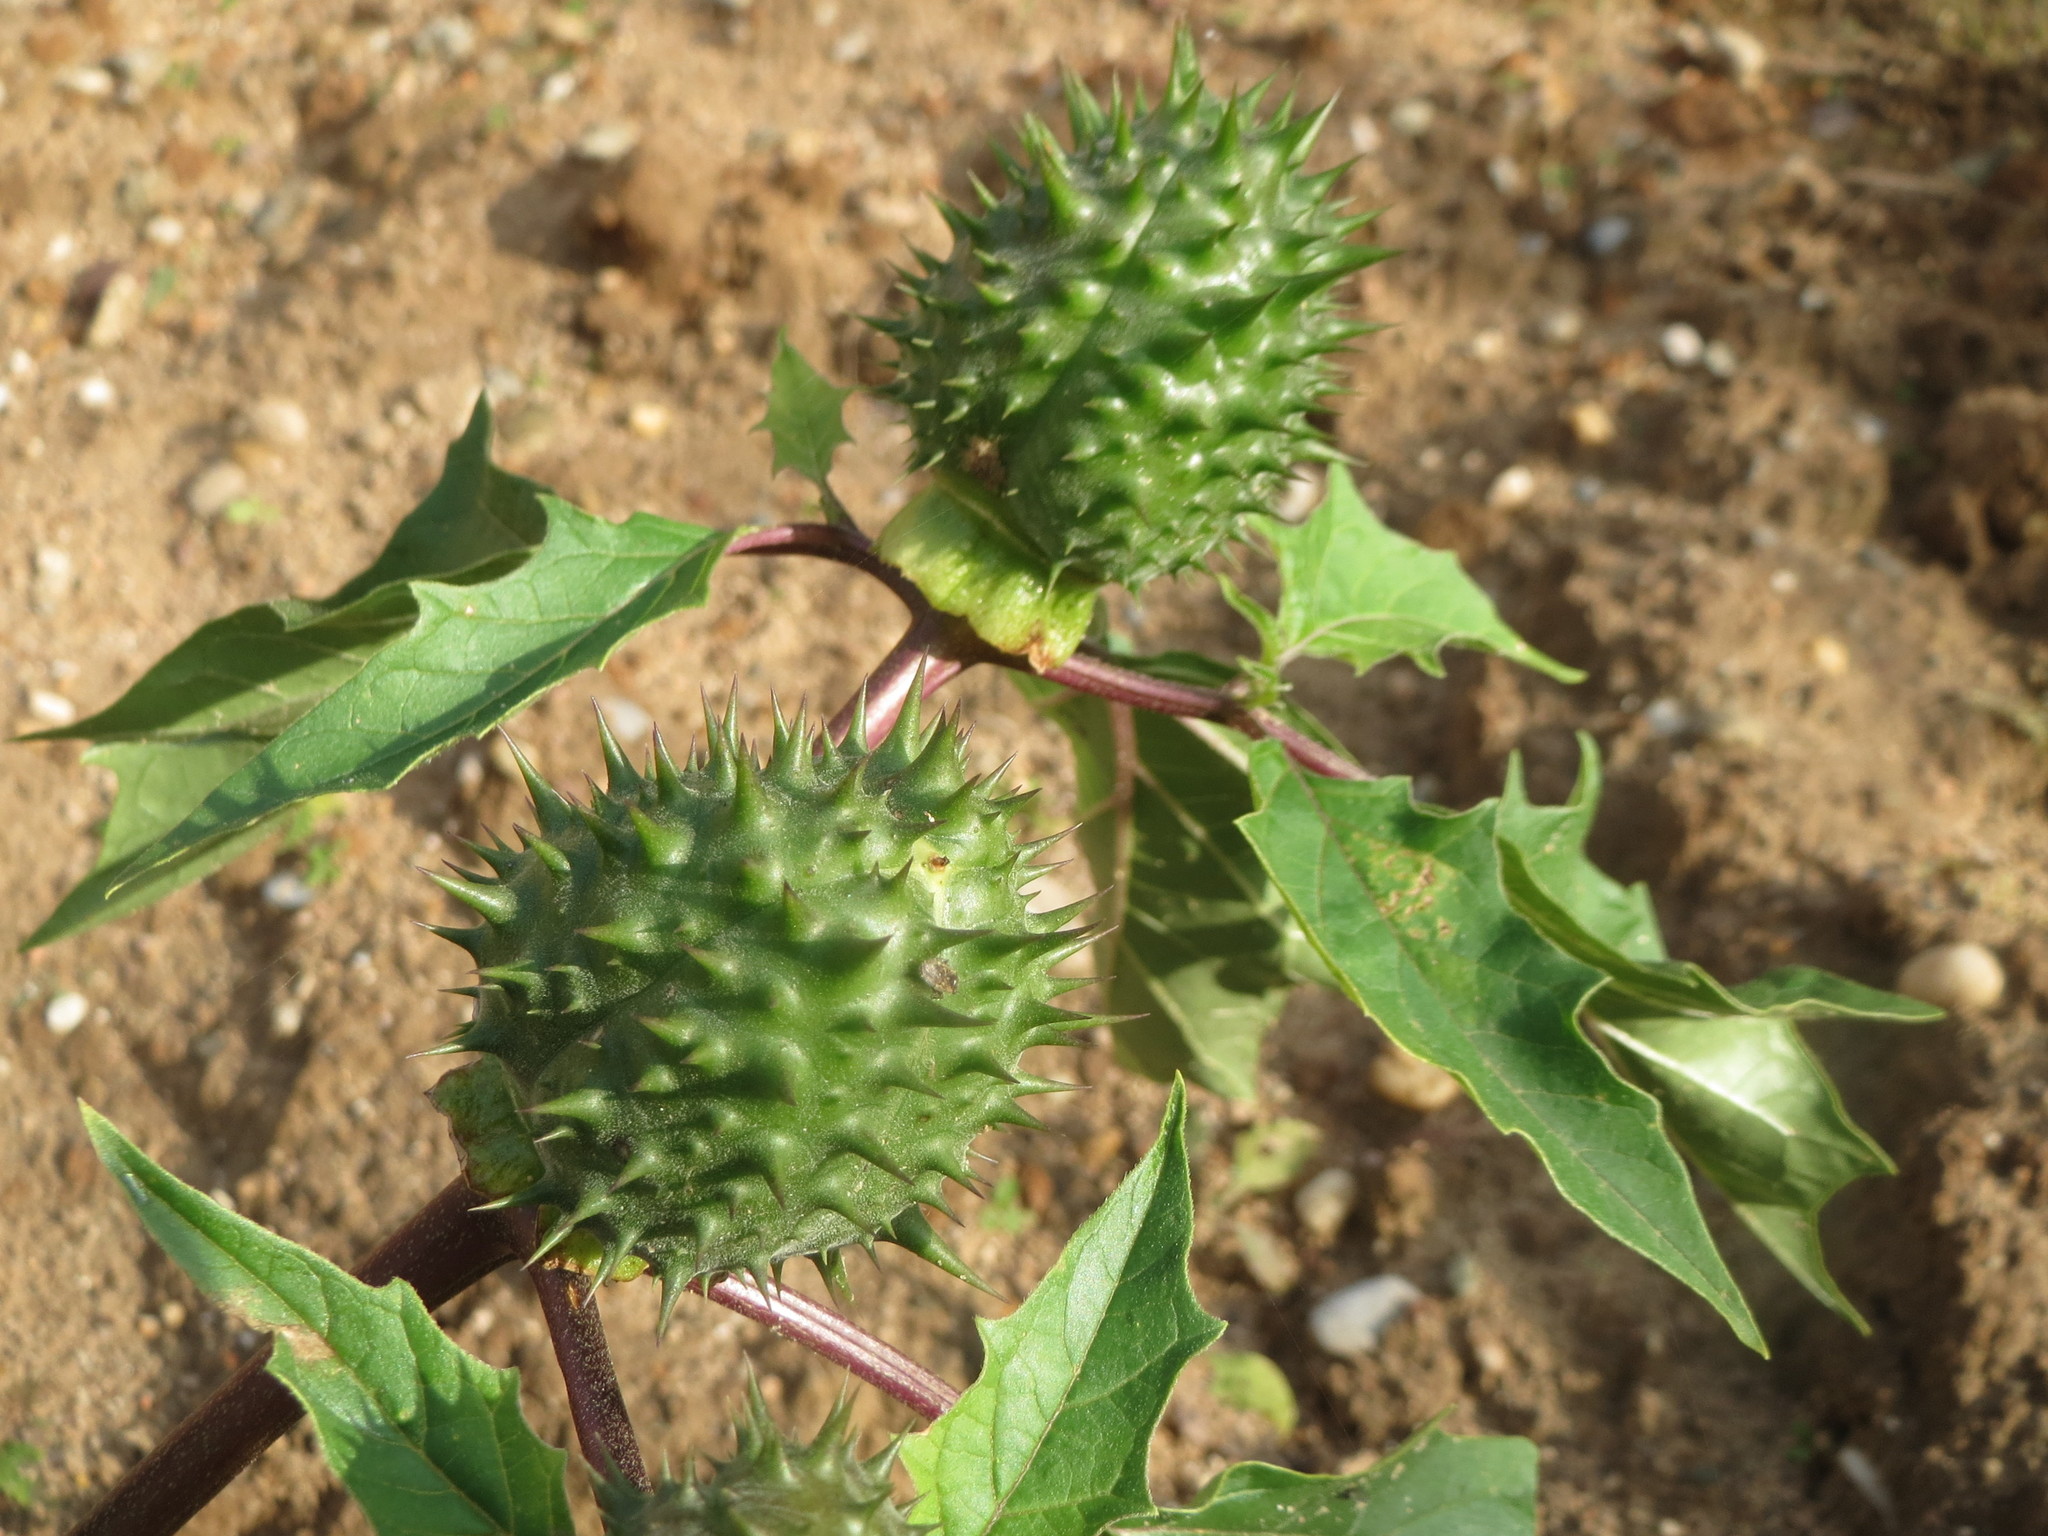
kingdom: Plantae
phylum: Tracheophyta
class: Magnoliopsida
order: Solanales
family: Solanaceae
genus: Datura
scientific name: Datura stramonium
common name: Thorn-apple
